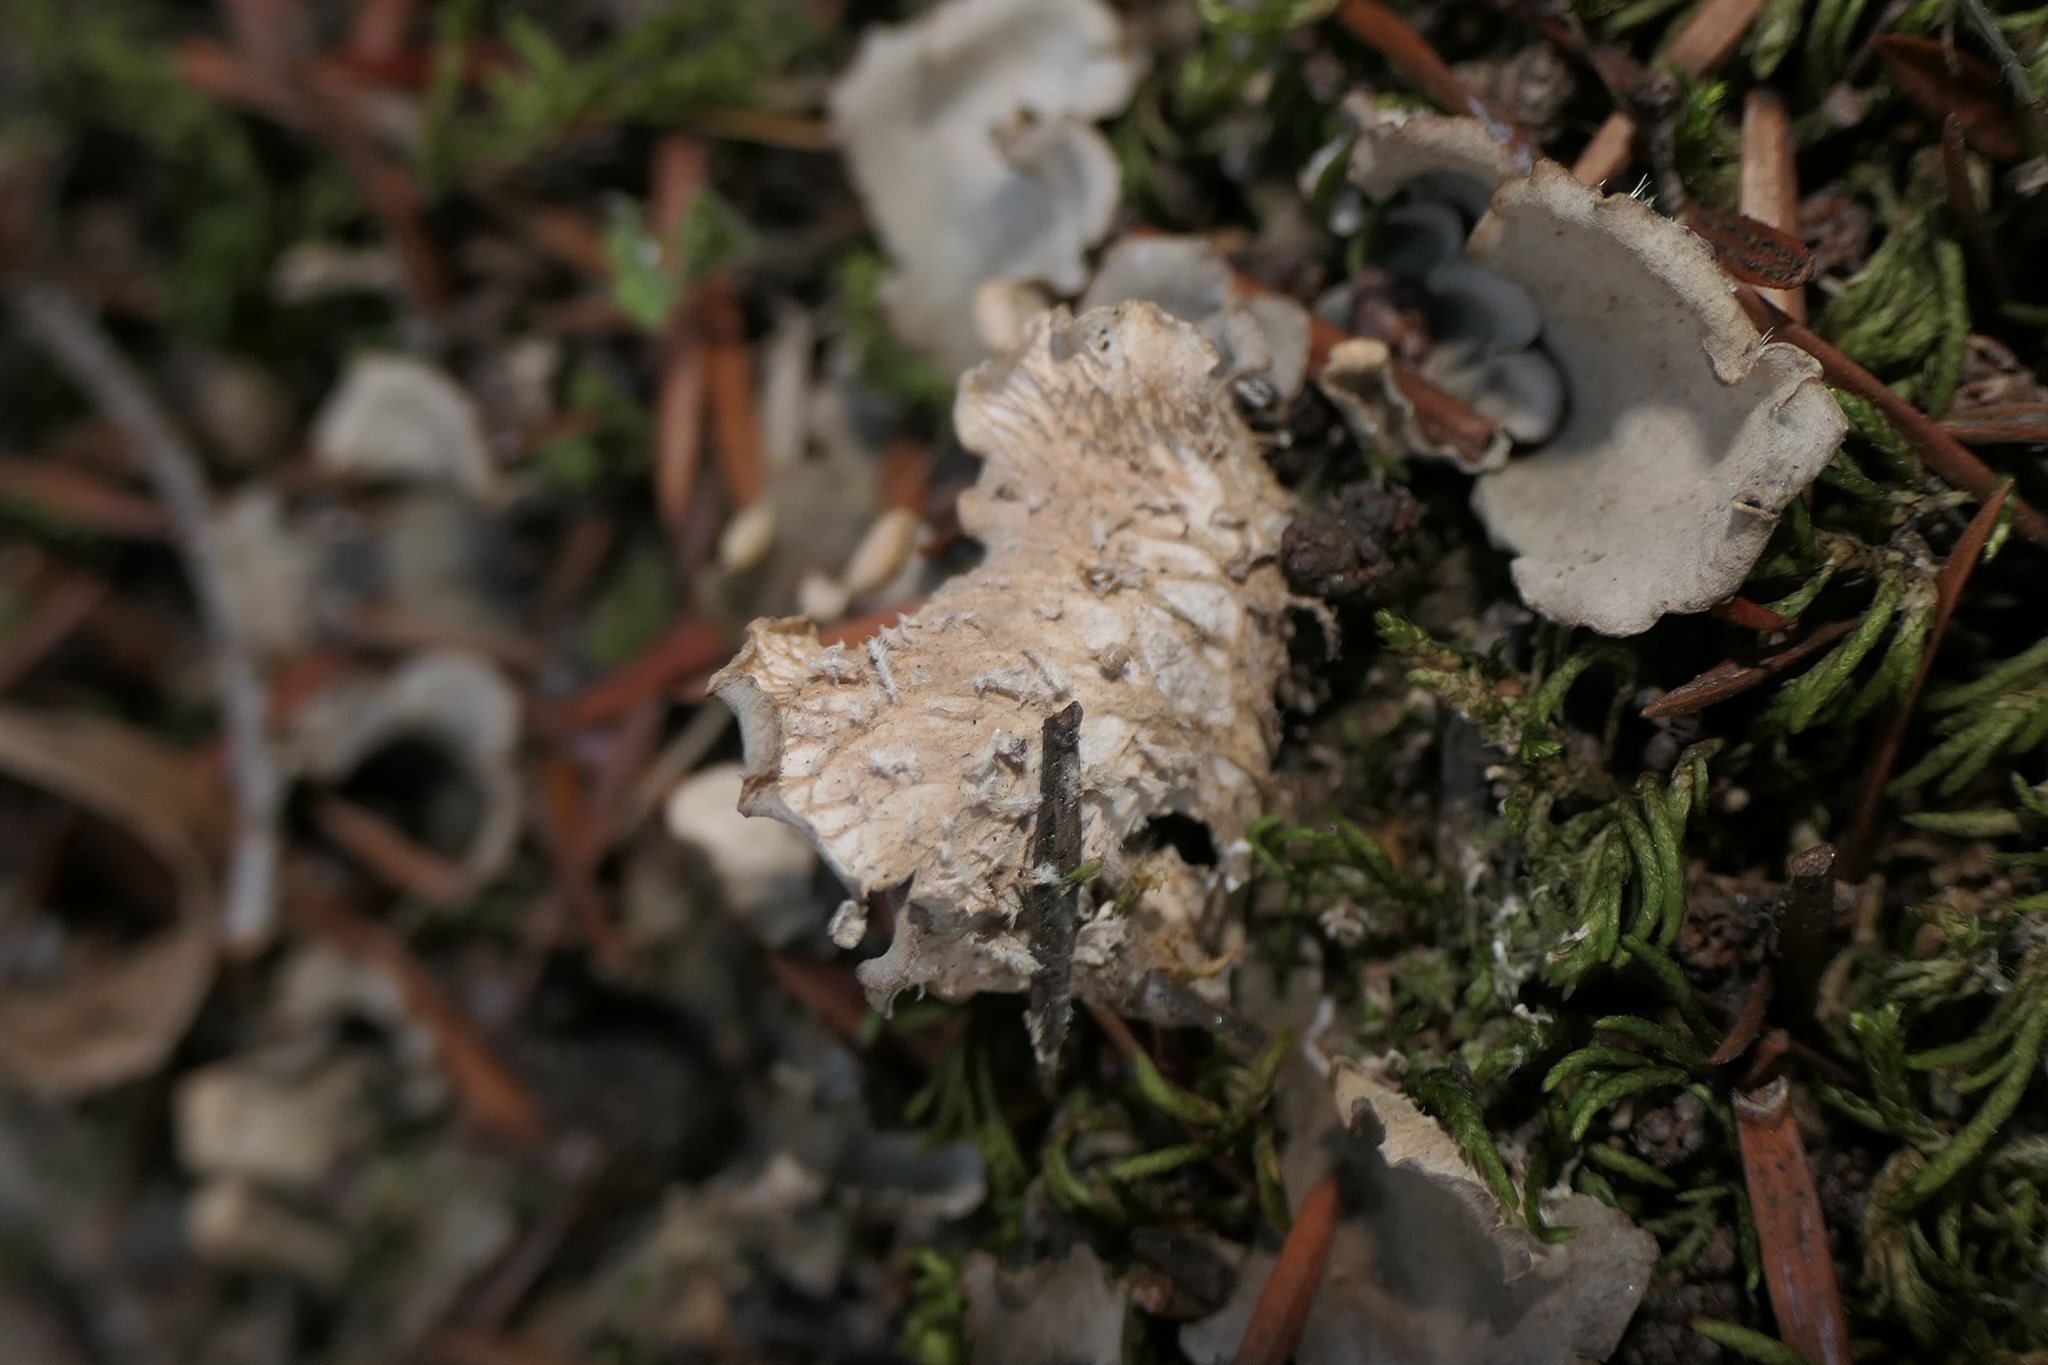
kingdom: Fungi
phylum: Ascomycota
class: Lecanoromycetes
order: Peltigerales
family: Peltigeraceae
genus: Peltigera
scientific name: Peltigera canina
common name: Dog pelt lichen
